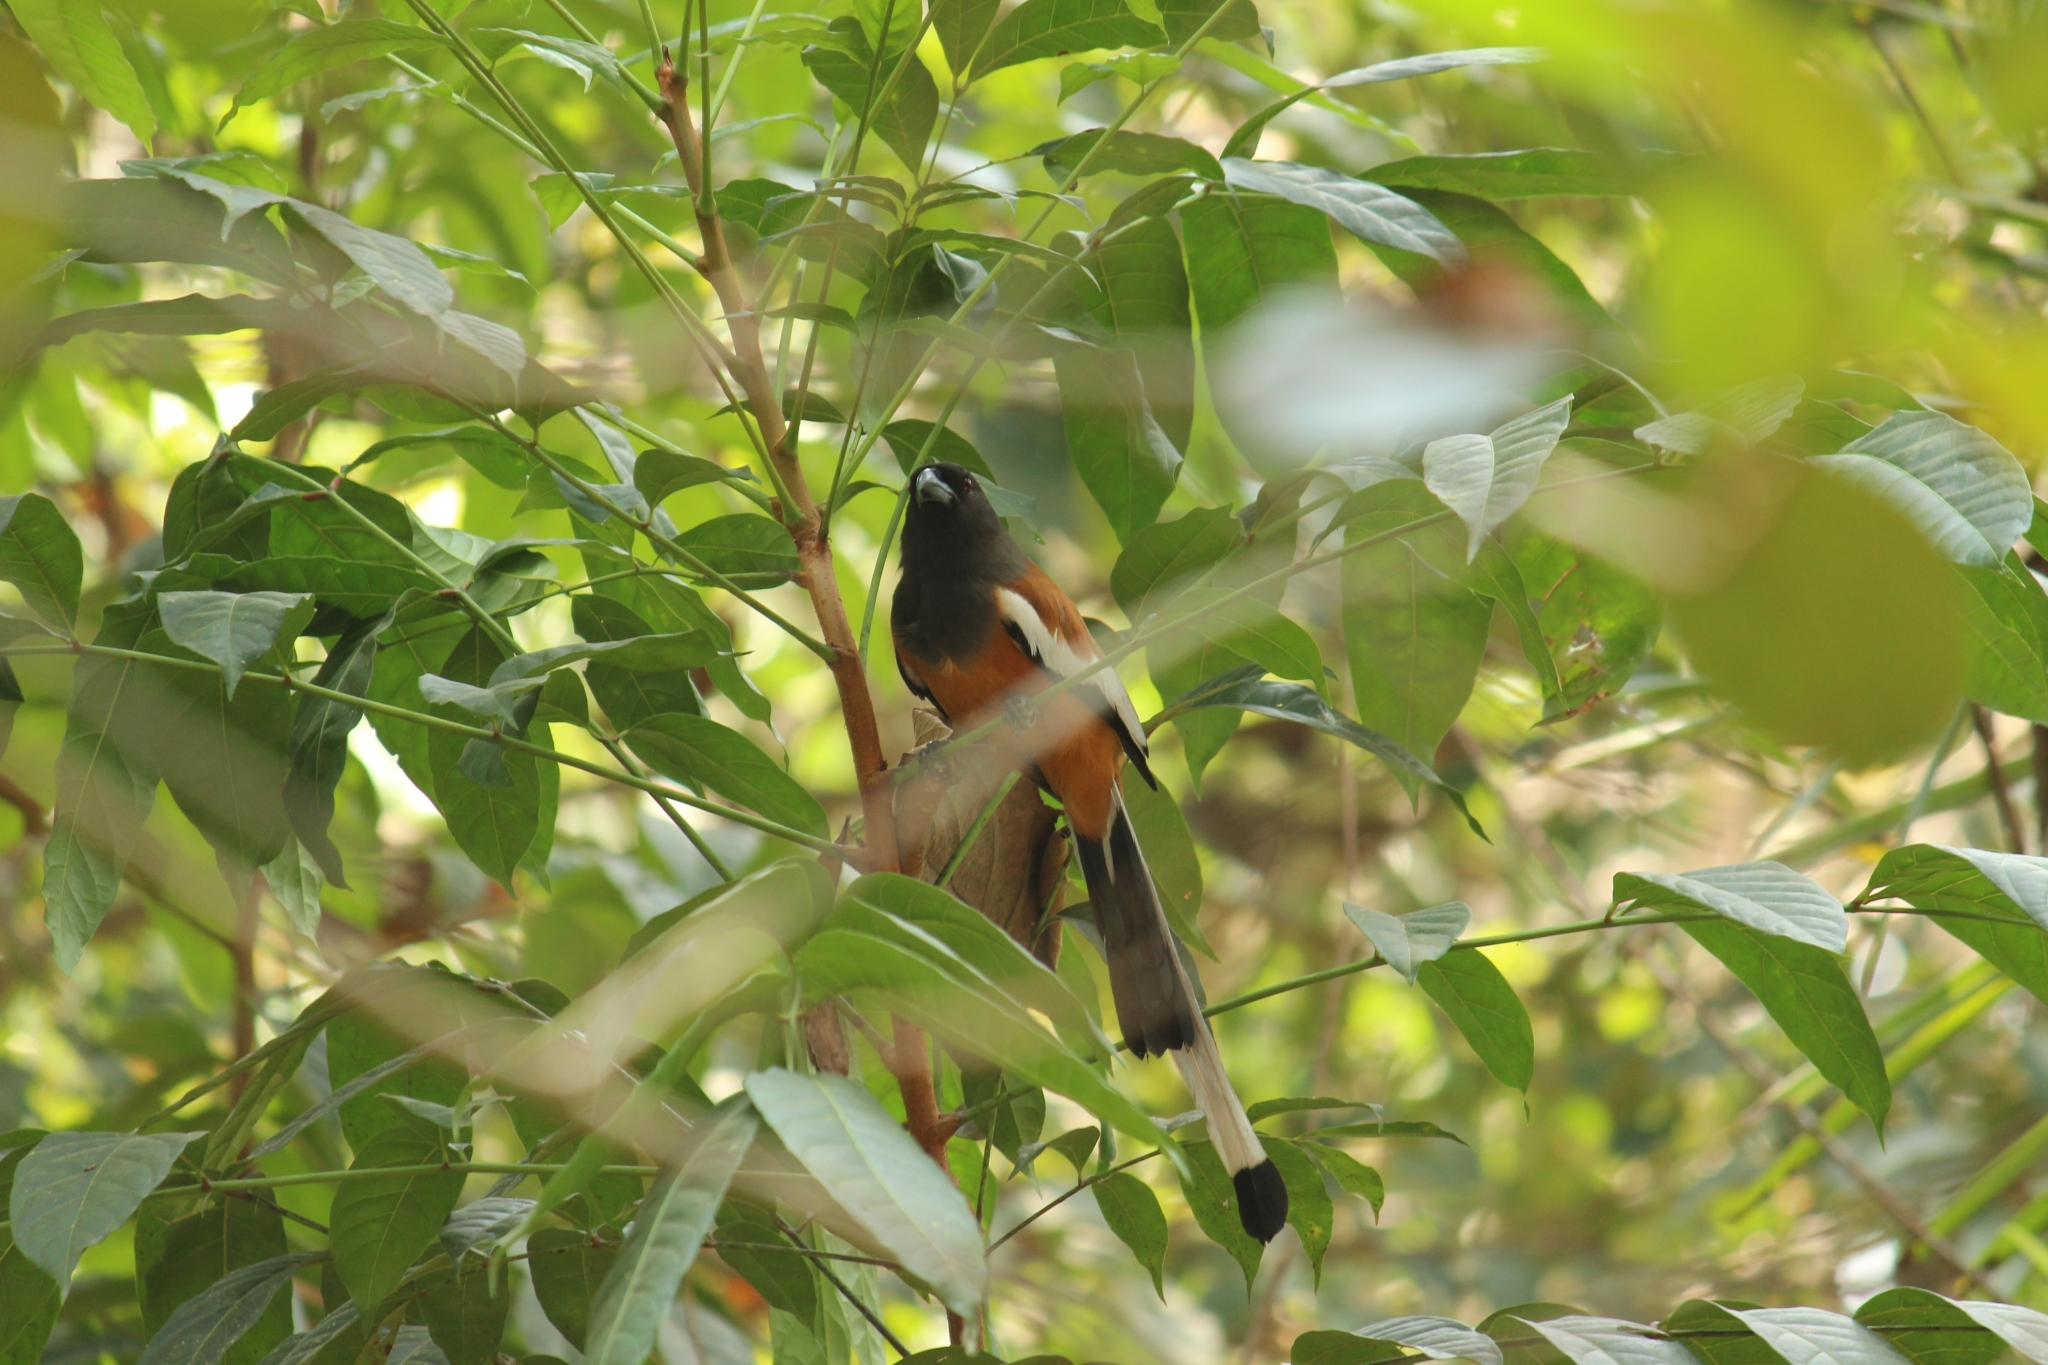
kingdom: Animalia
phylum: Chordata
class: Aves
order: Passeriformes
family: Corvidae
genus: Dendrocitta
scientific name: Dendrocitta vagabunda
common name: Rufous treepie
